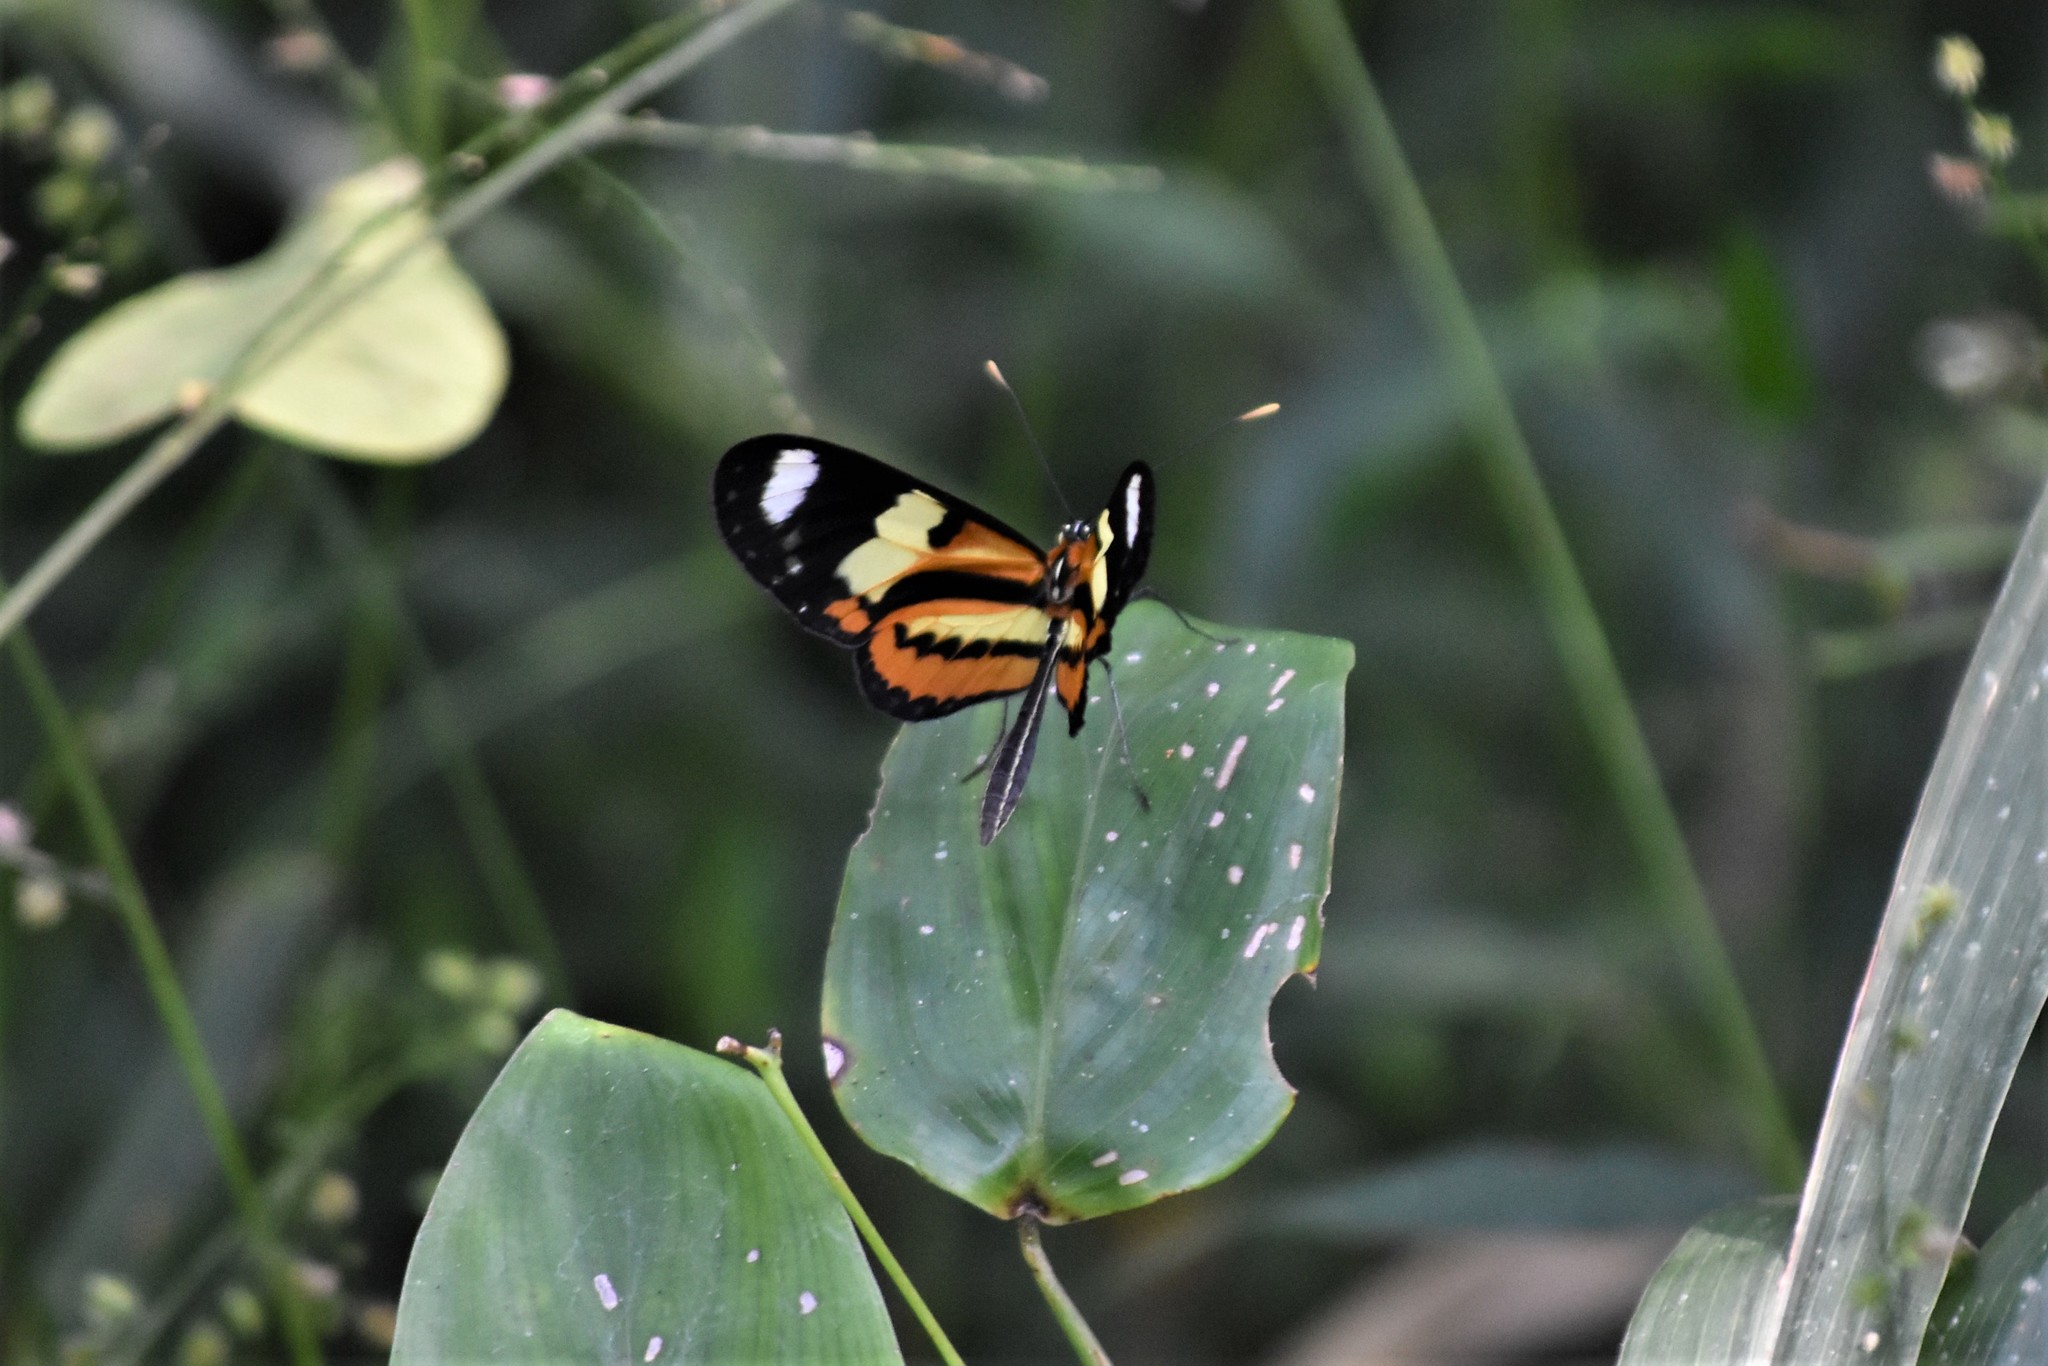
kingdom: Animalia
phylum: Arthropoda
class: Insecta
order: Lepidoptera
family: Nymphalidae
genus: Mechanitis
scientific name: Mechanitis lysimnia
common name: Lysimnia tigerwing
